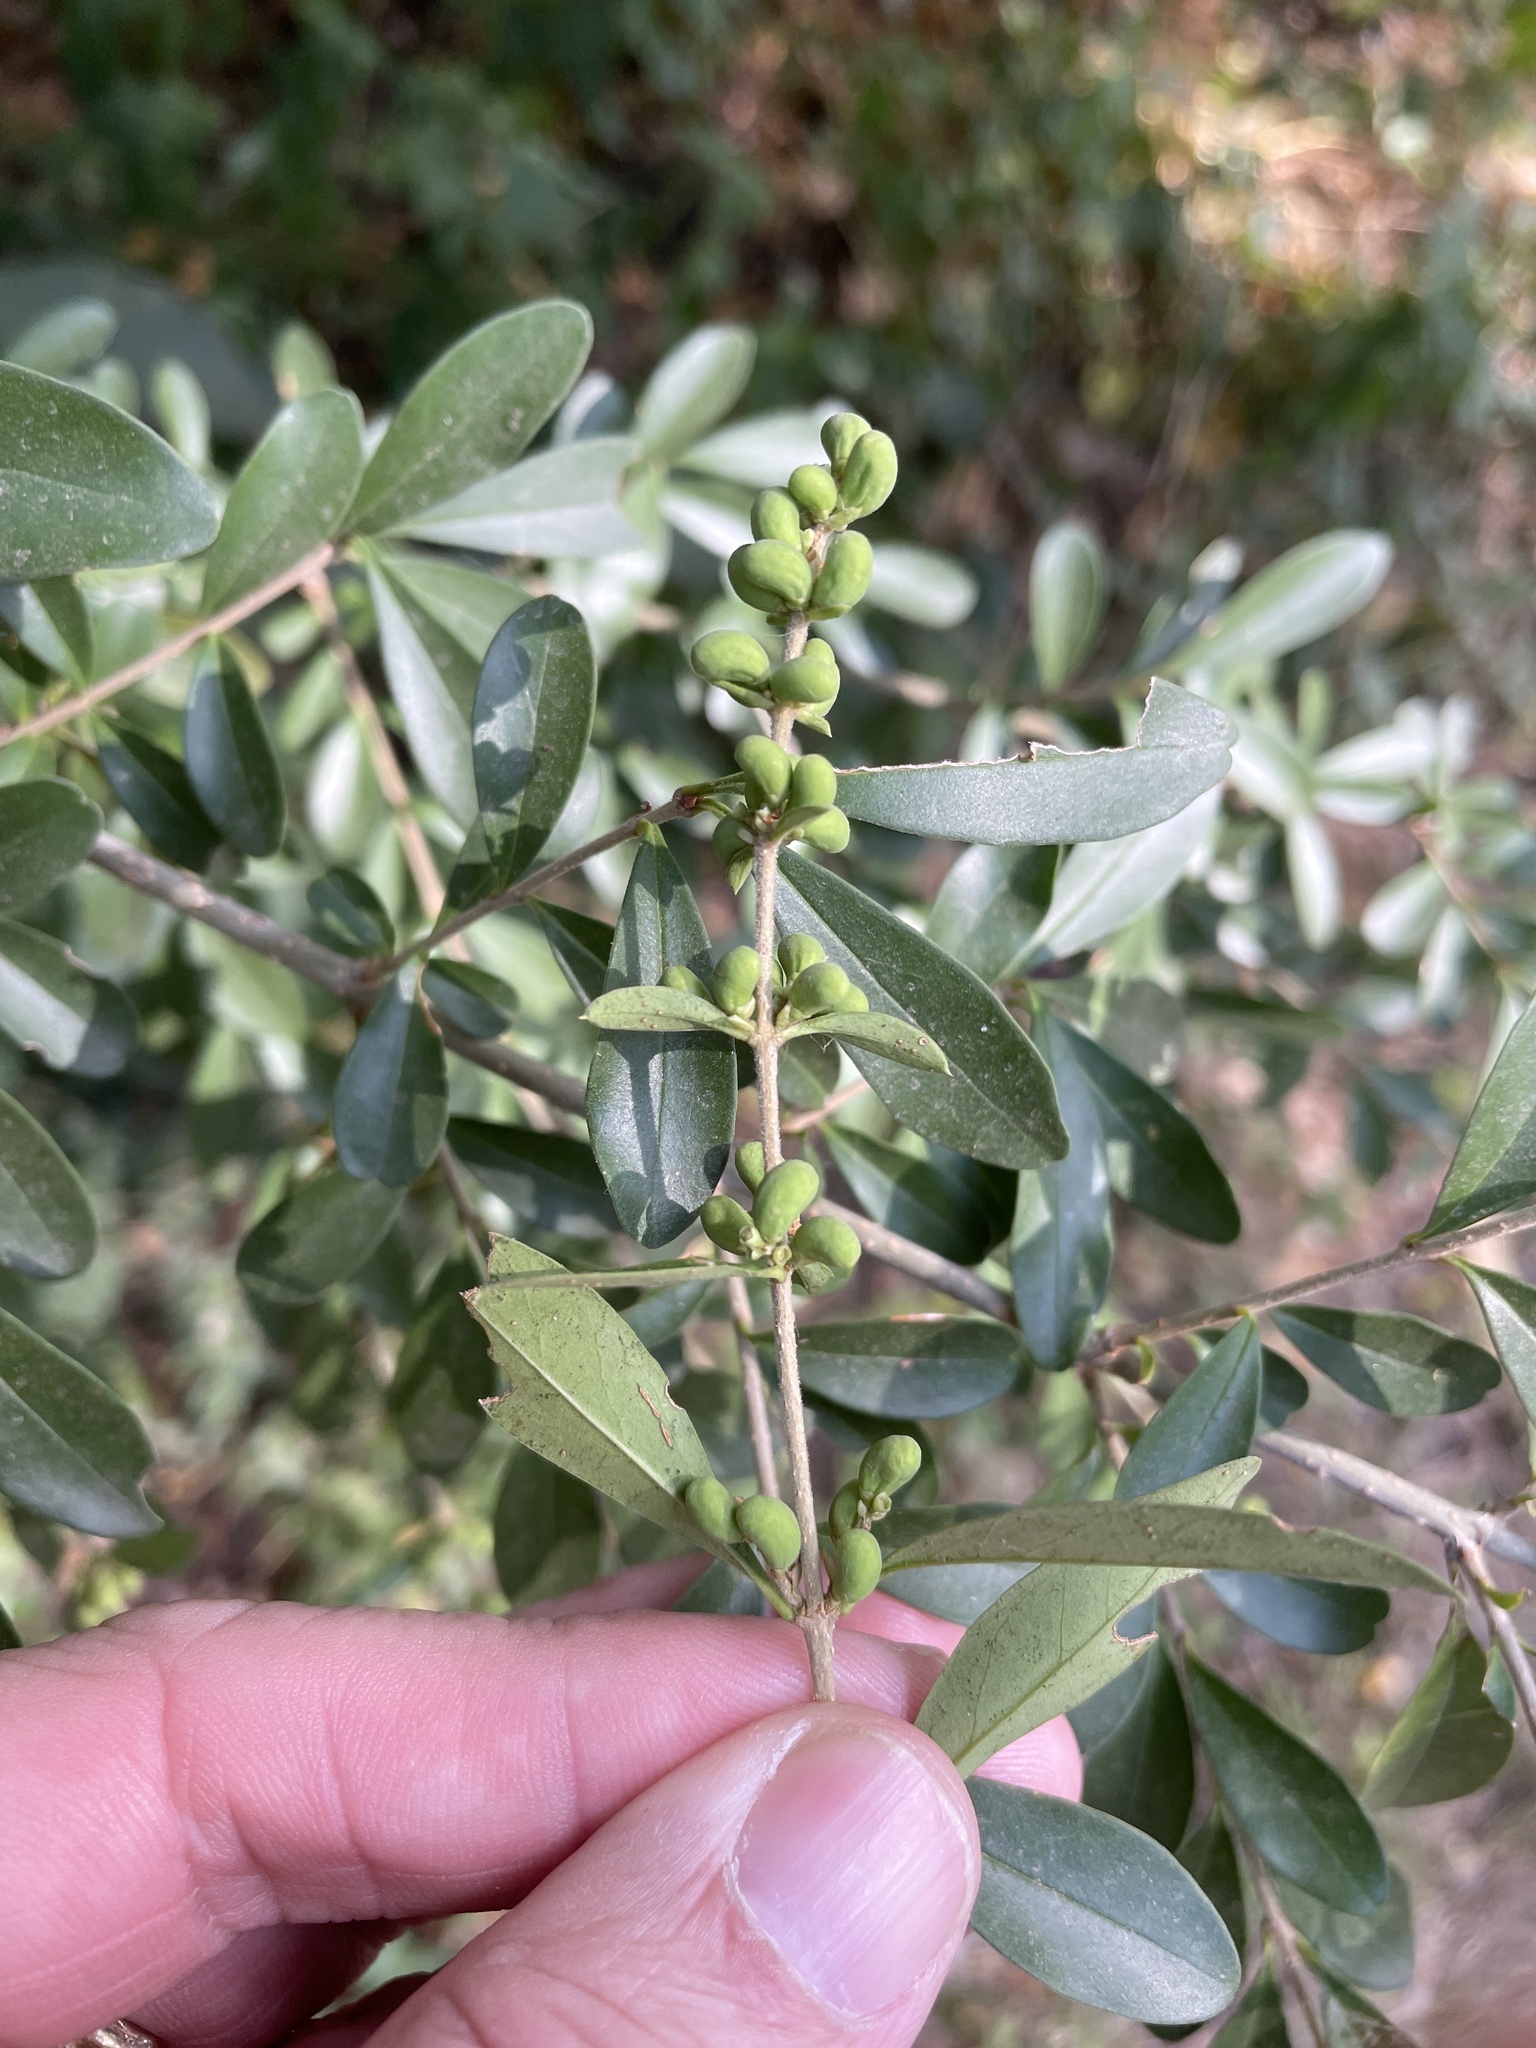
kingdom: Plantae
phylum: Tracheophyta
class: Magnoliopsida
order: Lamiales
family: Oleaceae
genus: Ligustrum
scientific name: Ligustrum quihoui
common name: Waxyleaf privet
